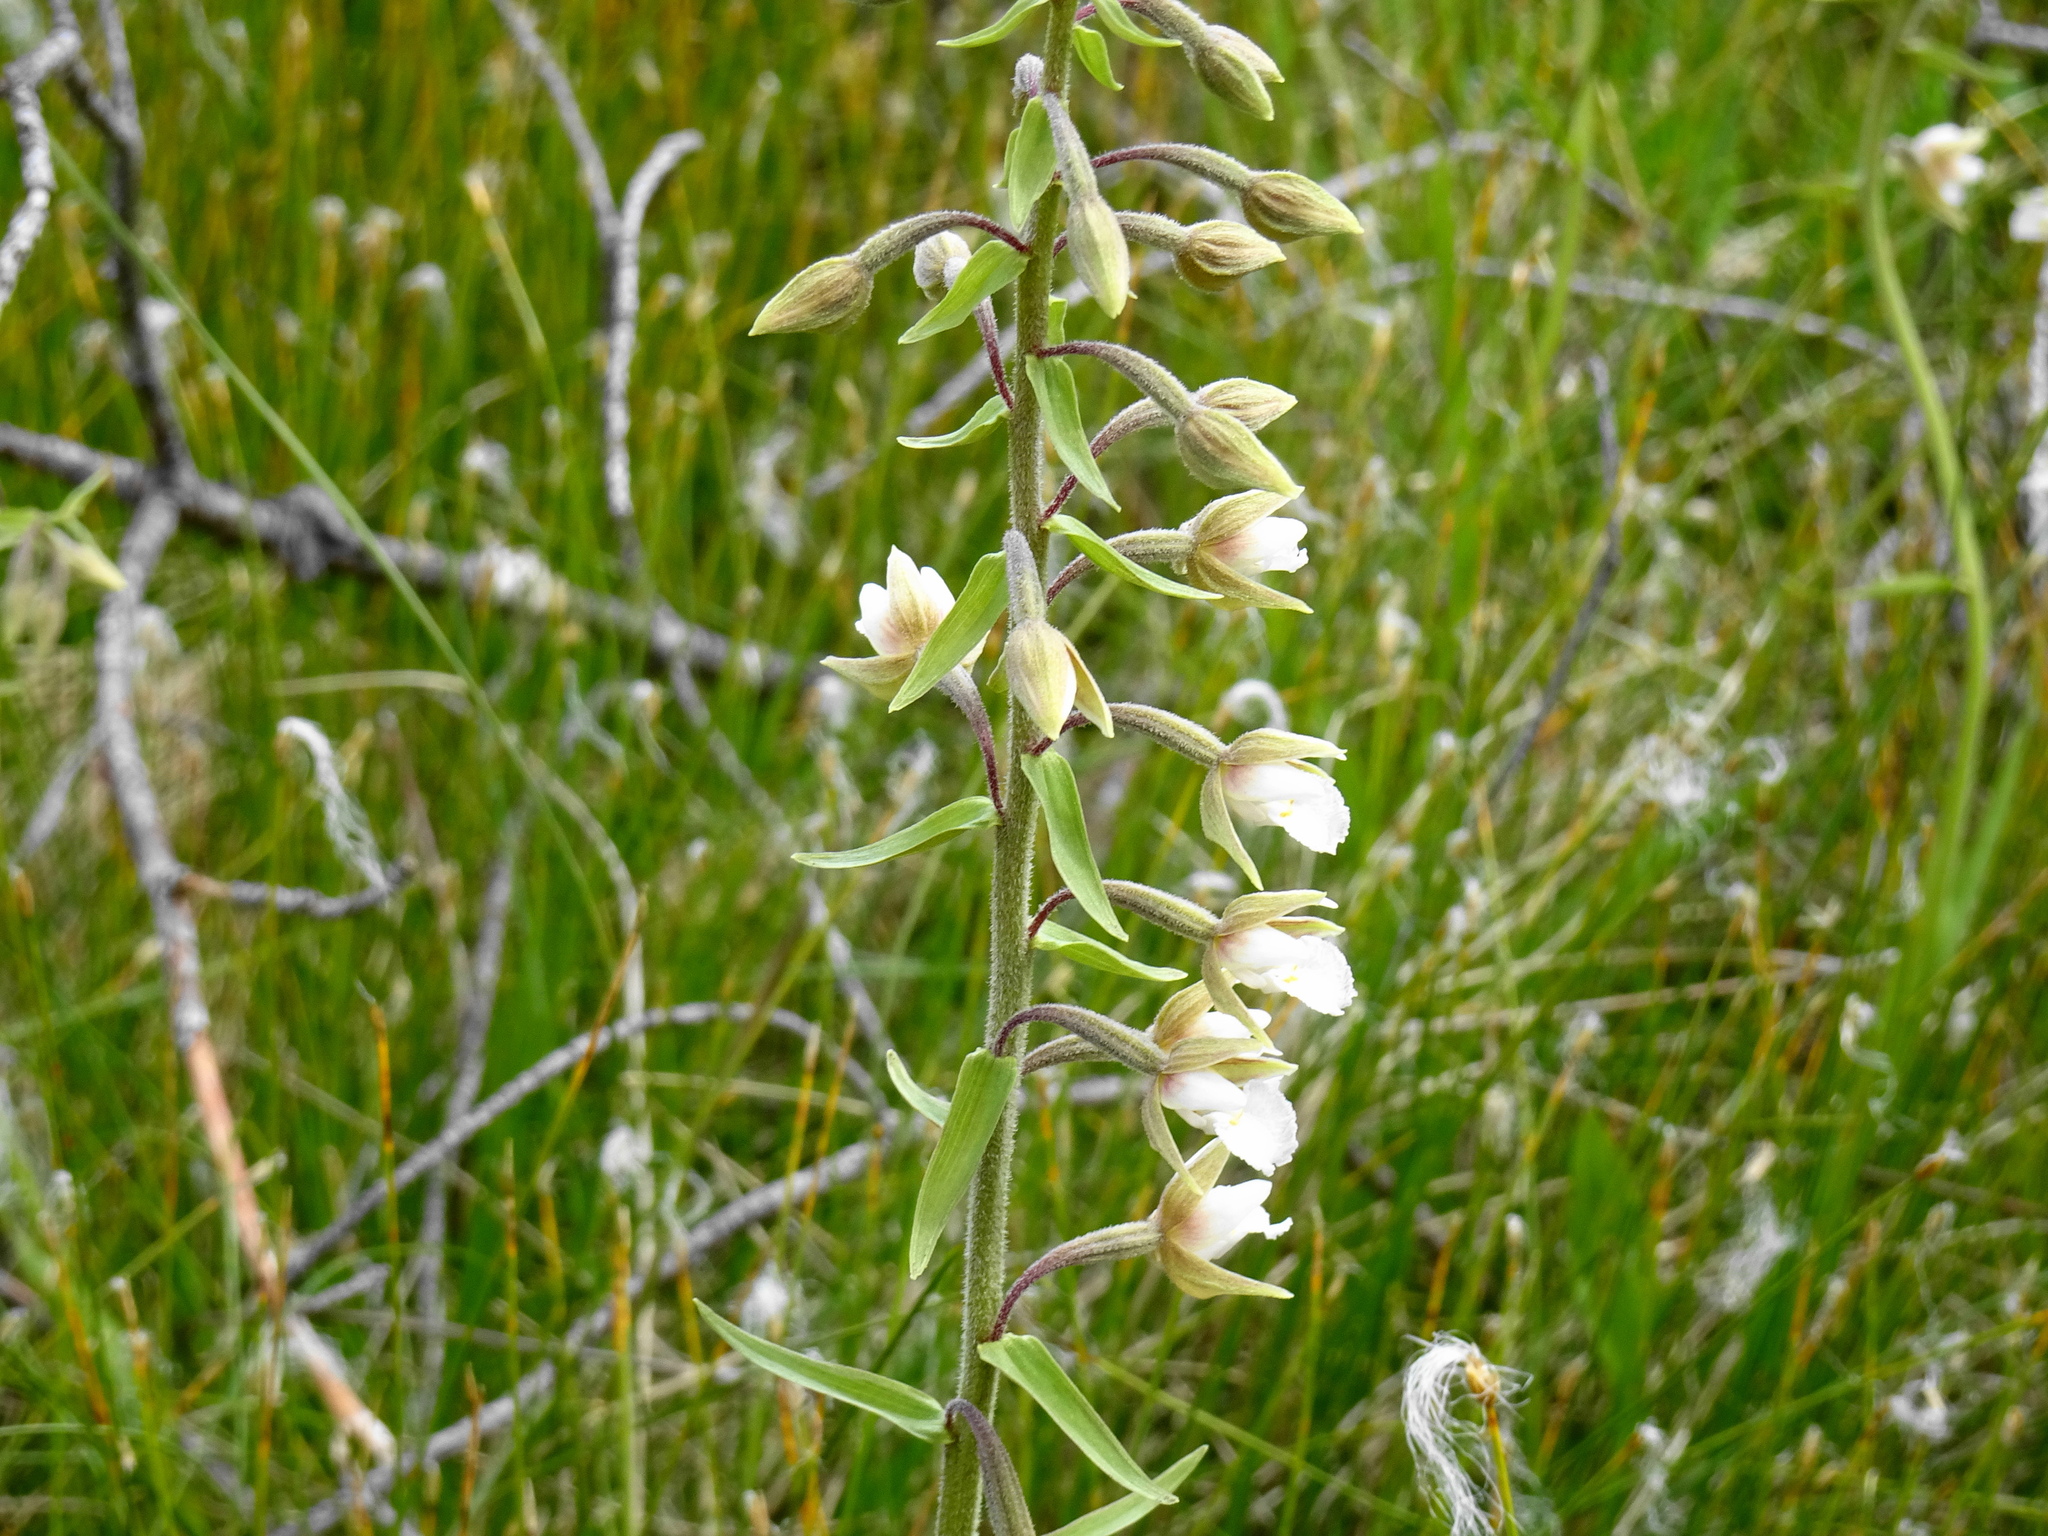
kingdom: Plantae
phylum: Tracheophyta
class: Liliopsida
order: Asparagales
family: Orchidaceae
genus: Epipactis
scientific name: Epipactis palustris
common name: Marsh helleborine
